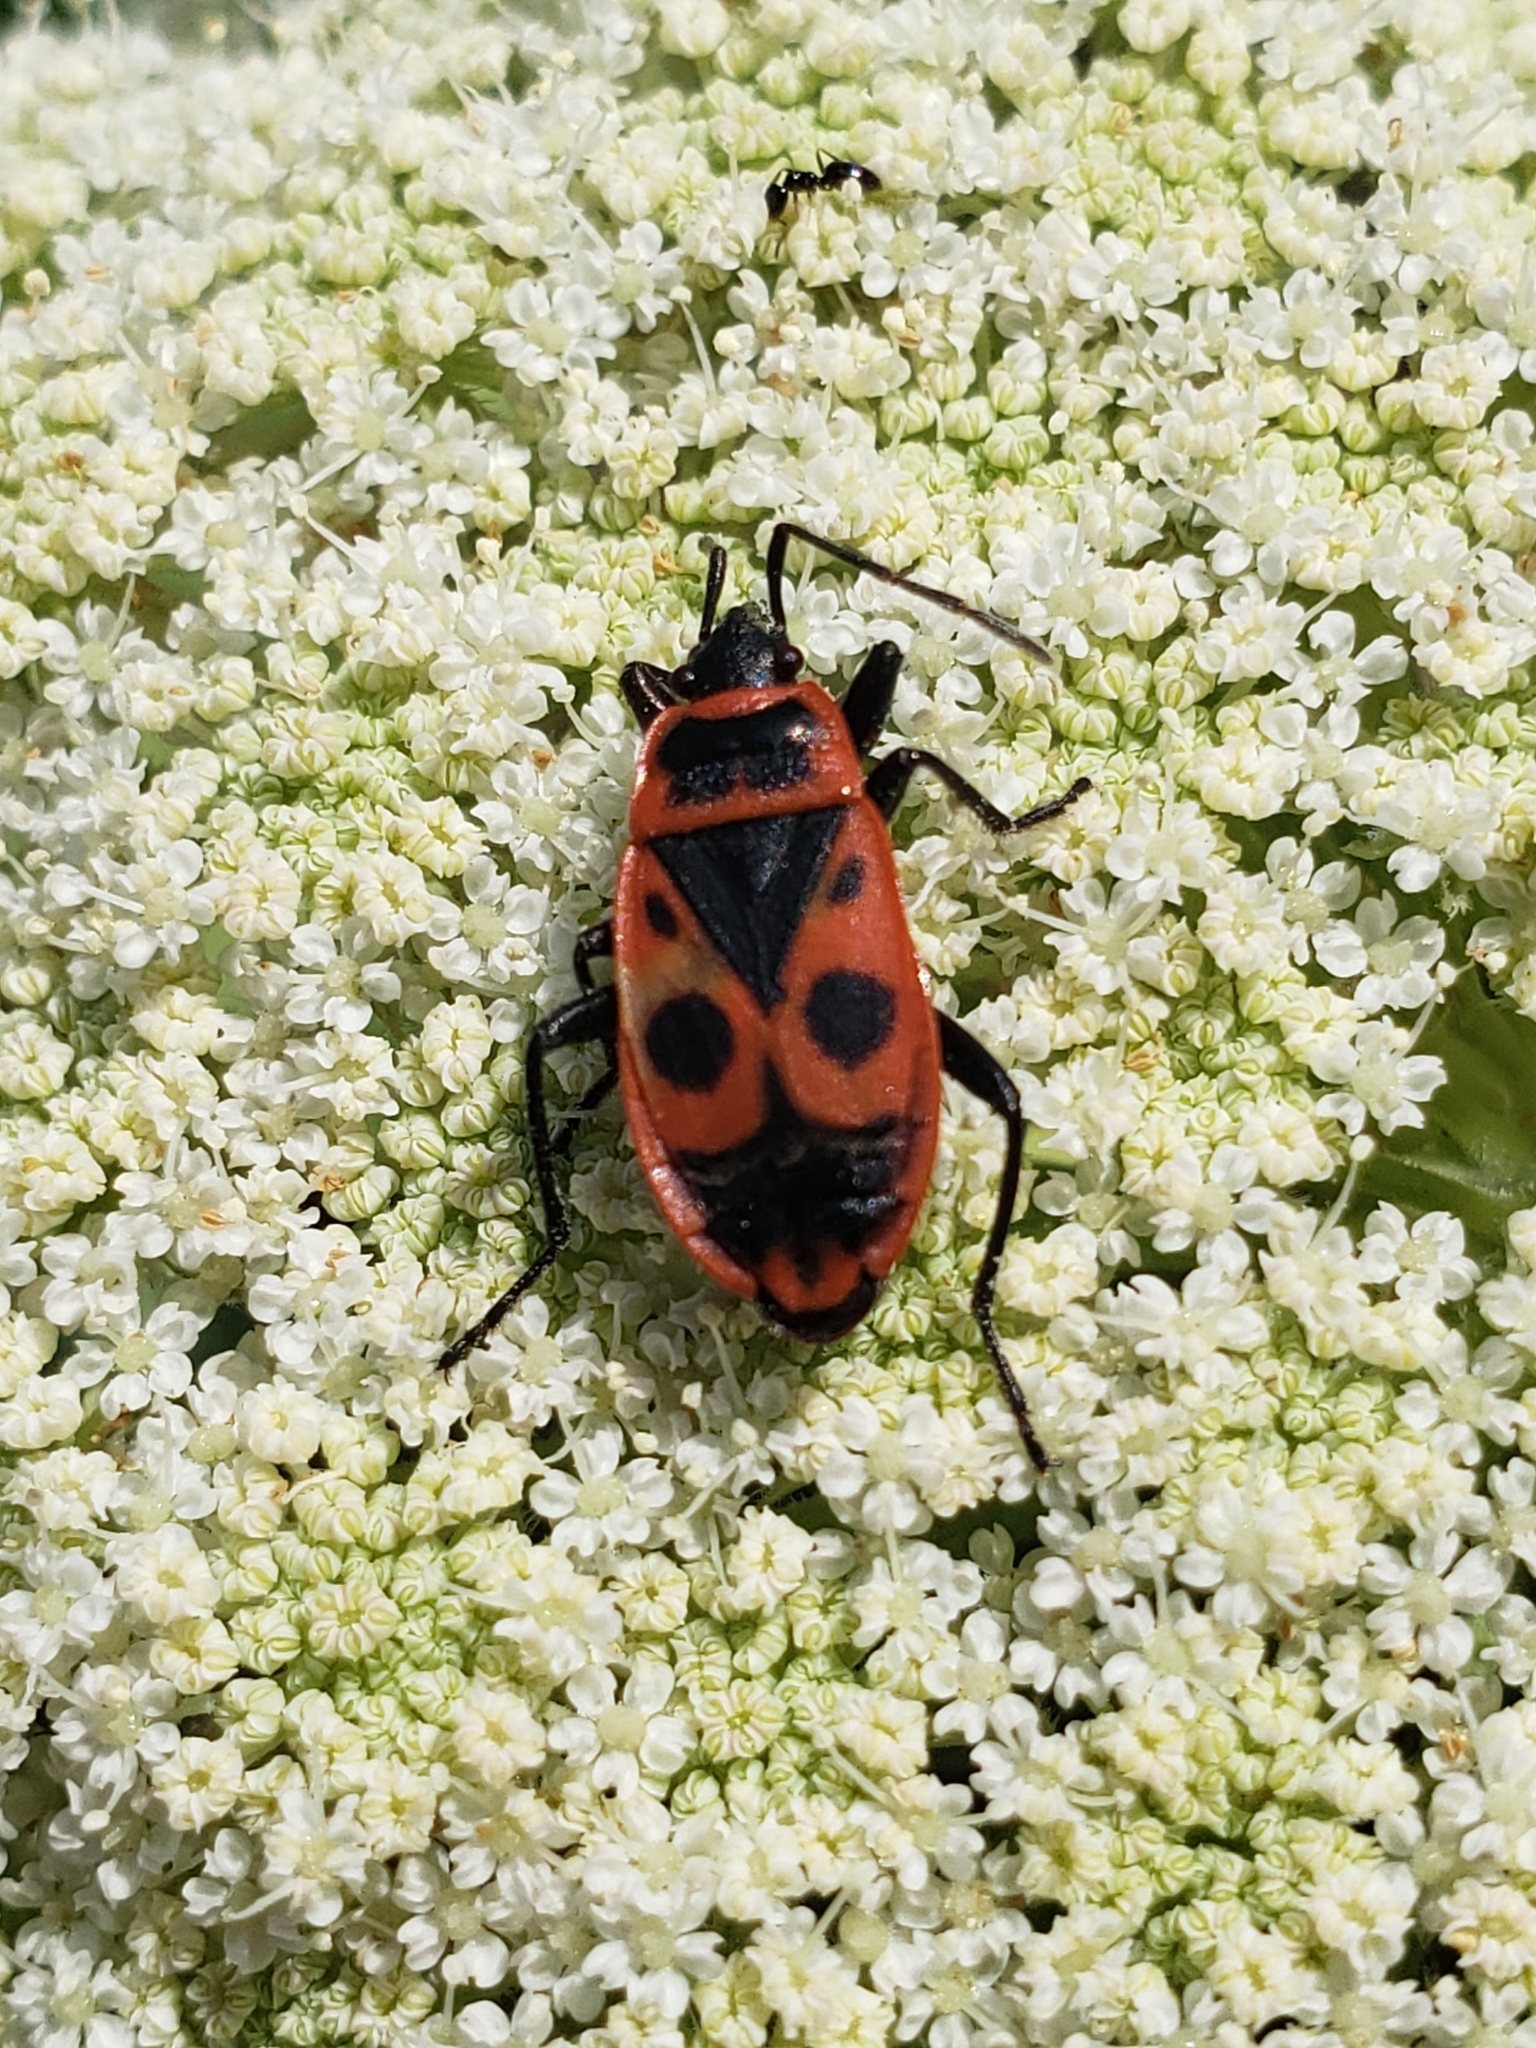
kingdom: Animalia
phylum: Arthropoda
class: Insecta
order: Hemiptera
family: Pyrrhocoridae
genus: Pyrrhocoris
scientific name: Pyrrhocoris apterus
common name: Firebug
